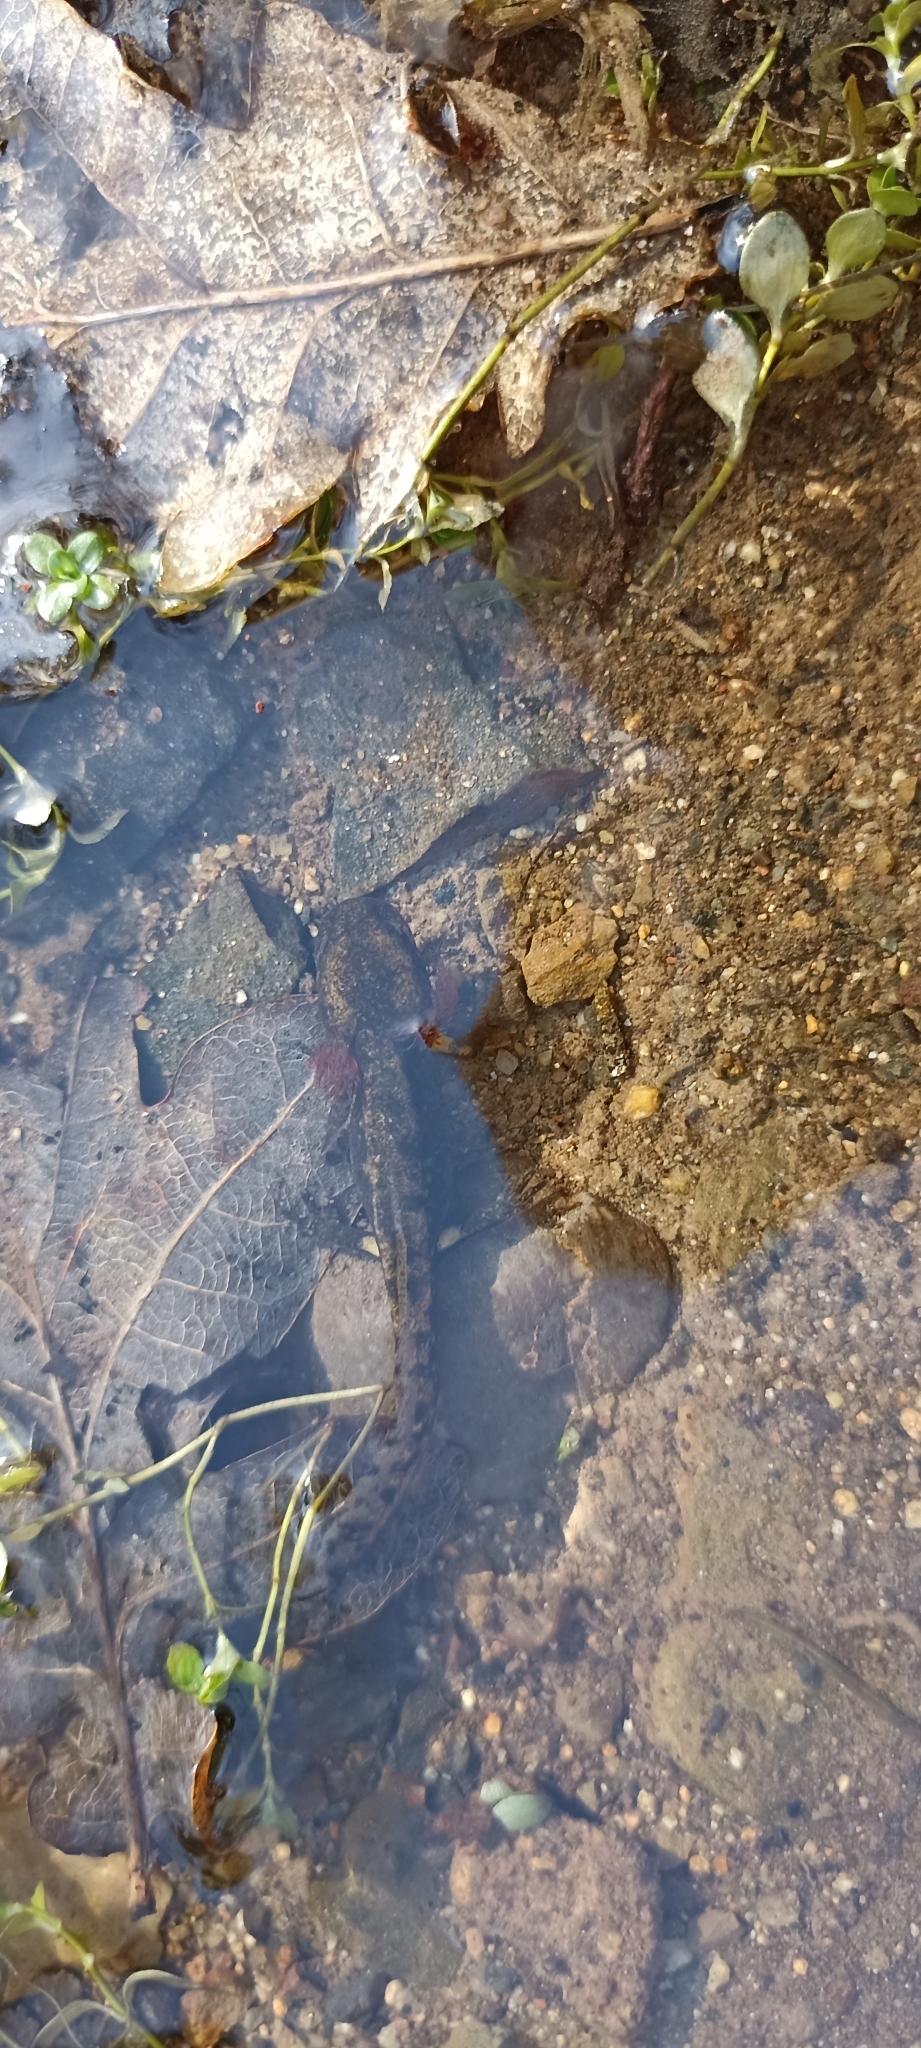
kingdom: Animalia
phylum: Chordata
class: Amphibia
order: Caudata
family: Salamandridae
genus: Salamandra
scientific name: Salamandra salamandra
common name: Fire salamander
